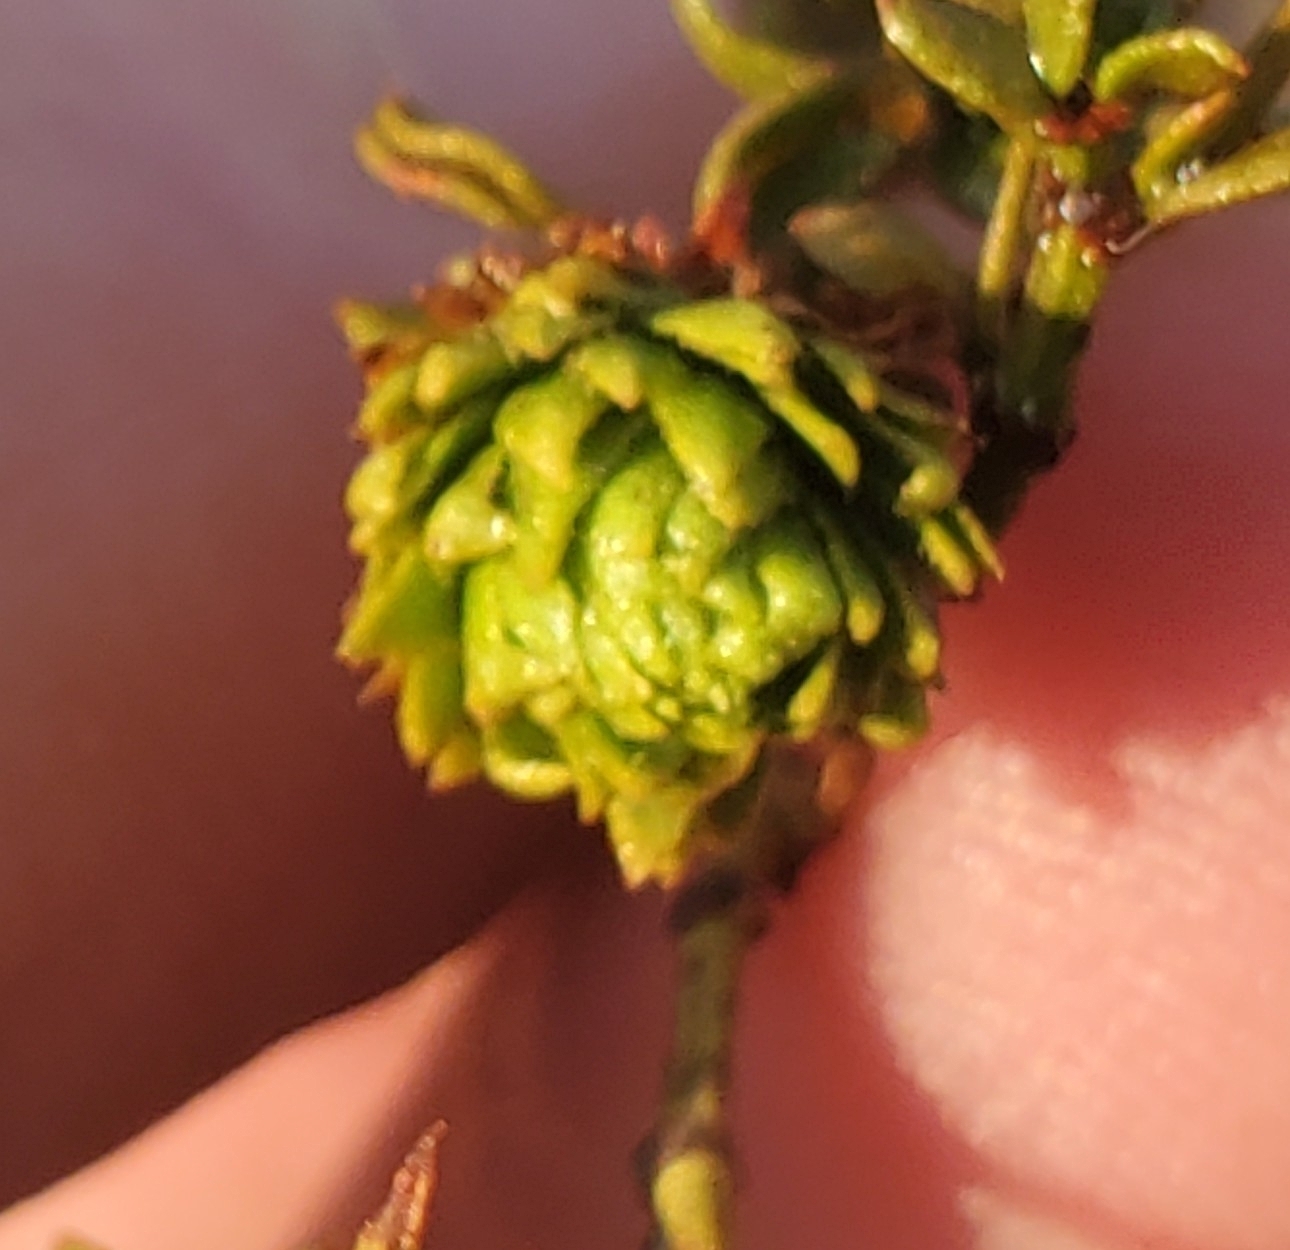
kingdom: Animalia
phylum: Arthropoda
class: Insecta
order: Diptera
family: Cecidomyiidae
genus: Asphondylia
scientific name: Asphondylia rosetta
